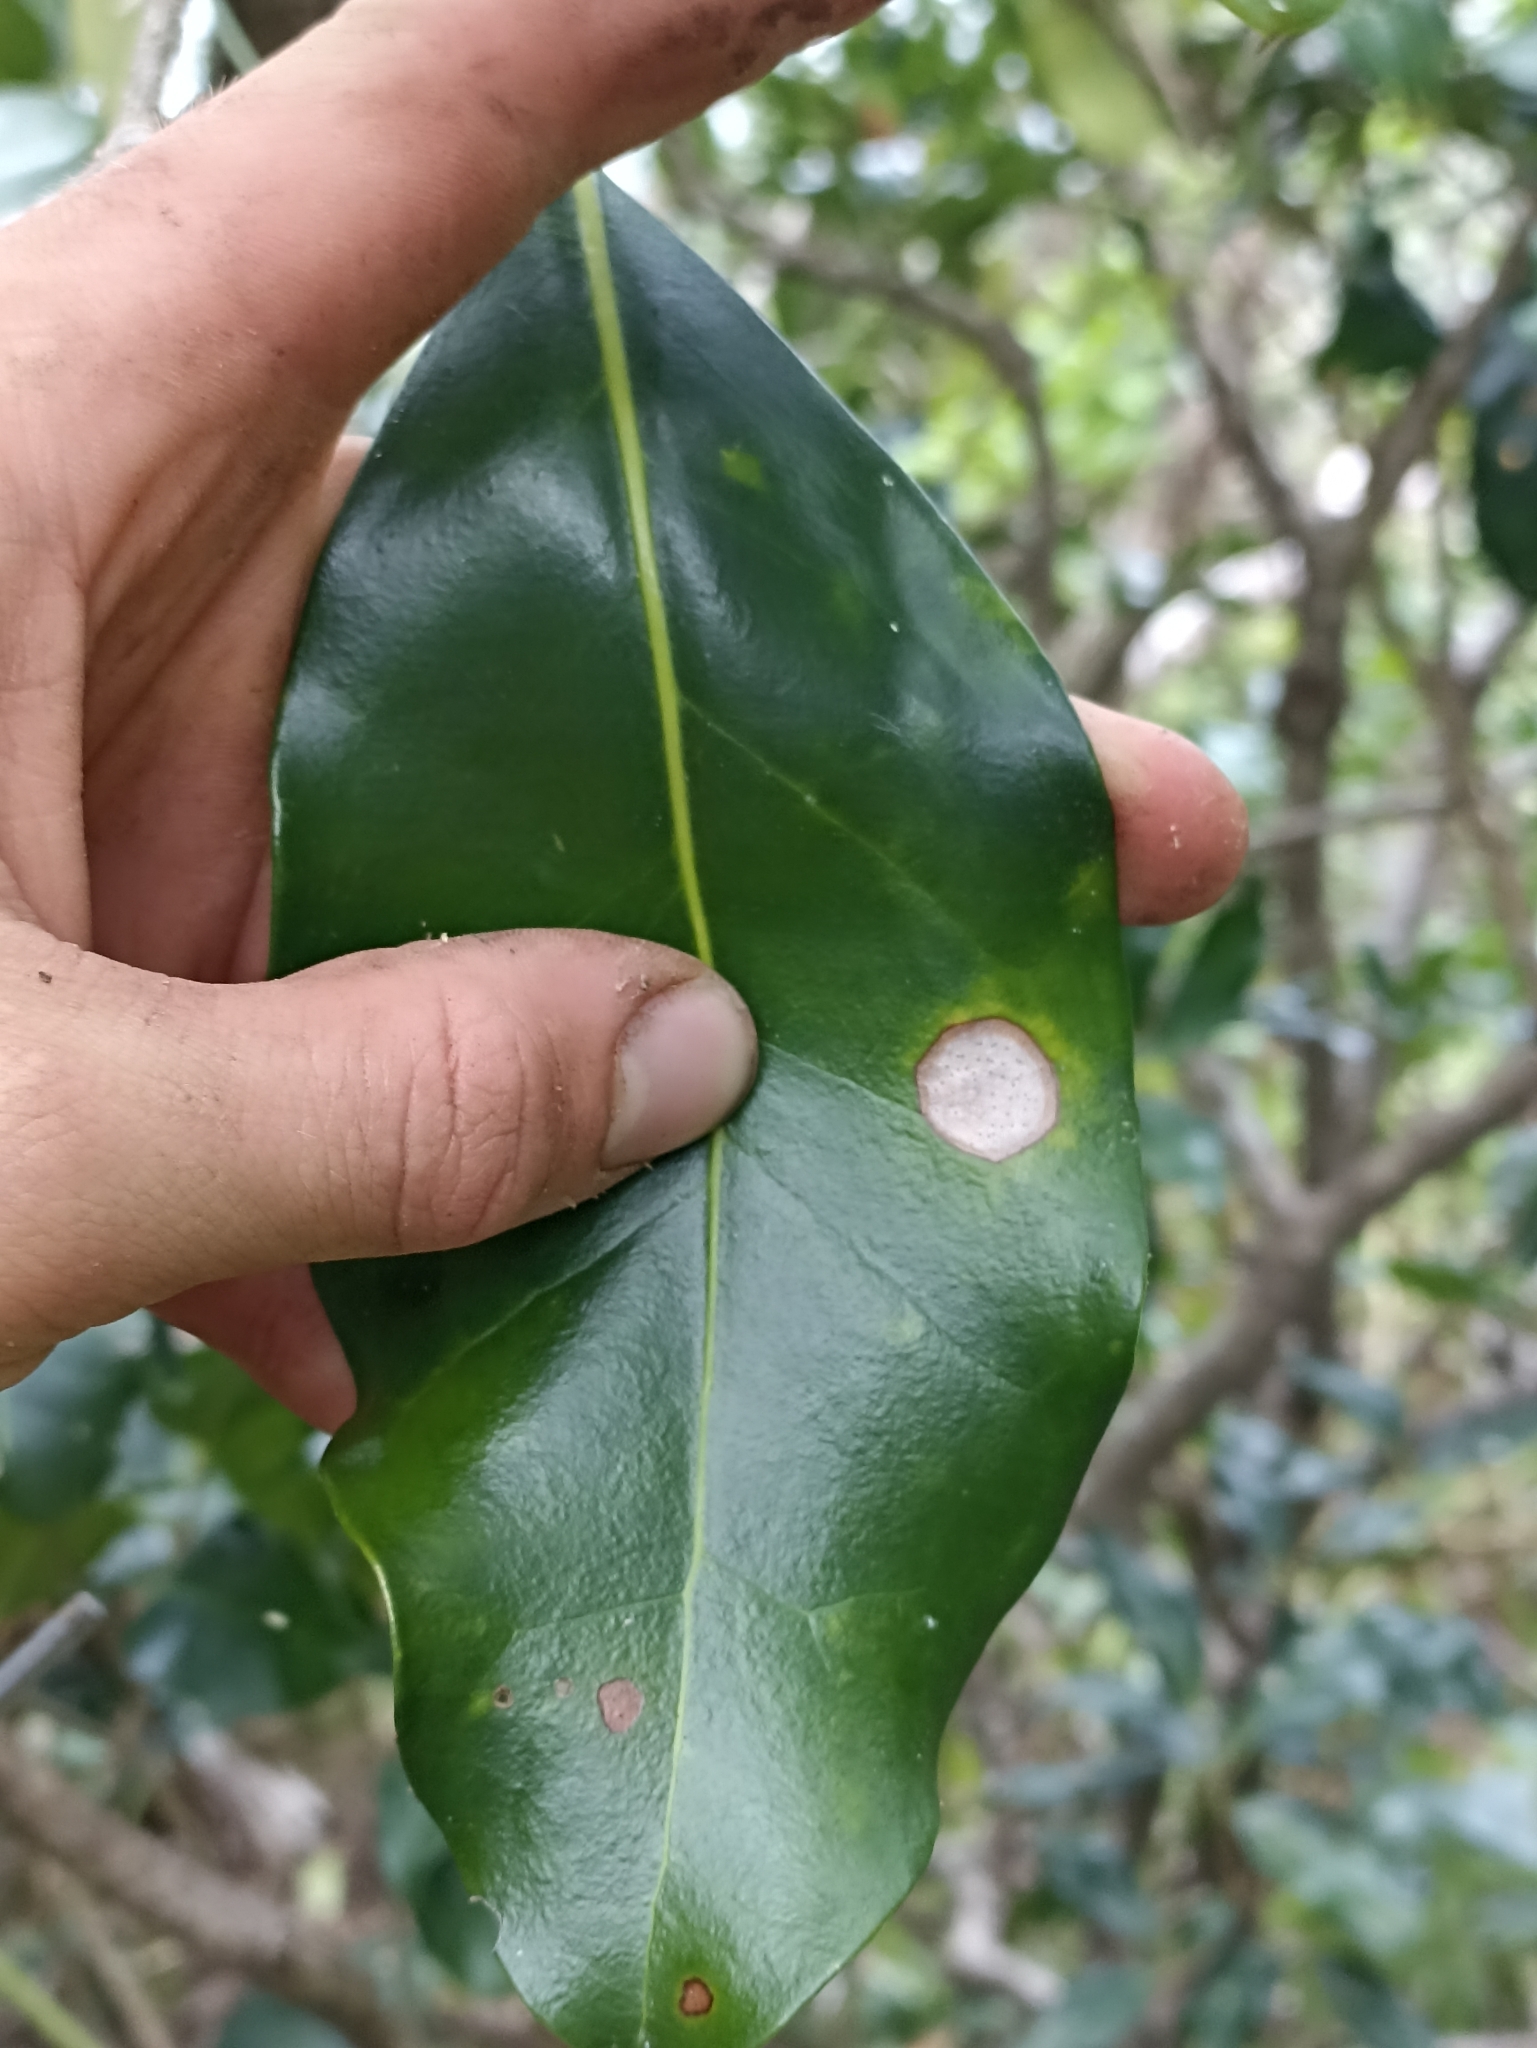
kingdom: Plantae
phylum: Tracheophyta
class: Magnoliopsida
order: Lamiales
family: Oleaceae
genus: Nestegis
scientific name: Nestegis apetala
